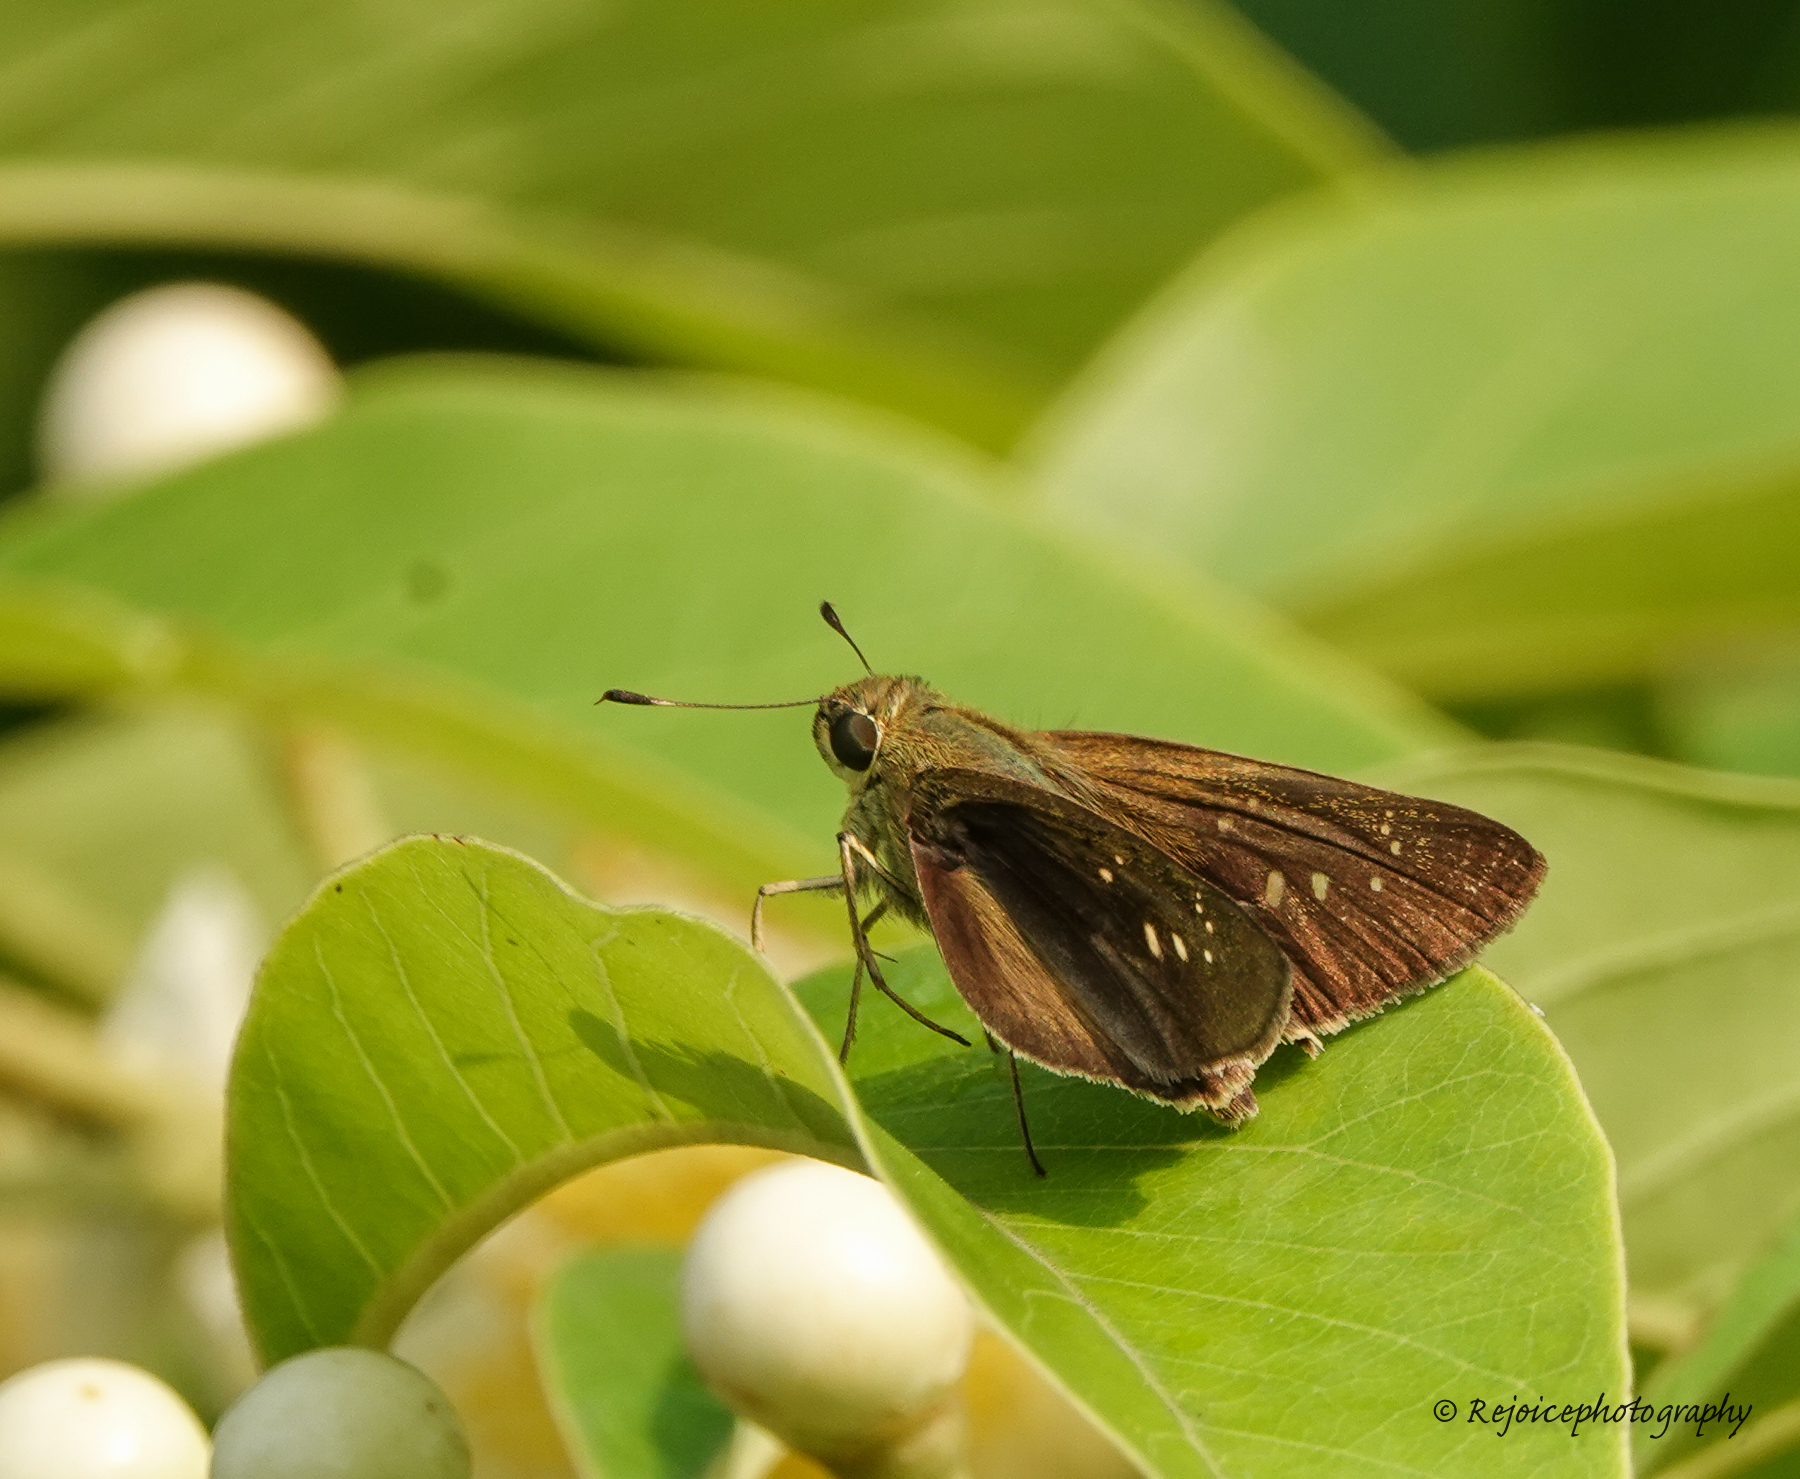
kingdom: Animalia
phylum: Arthropoda
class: Insecta
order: Lepidoptera
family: Hesperiidae
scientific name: Hesperiidae
